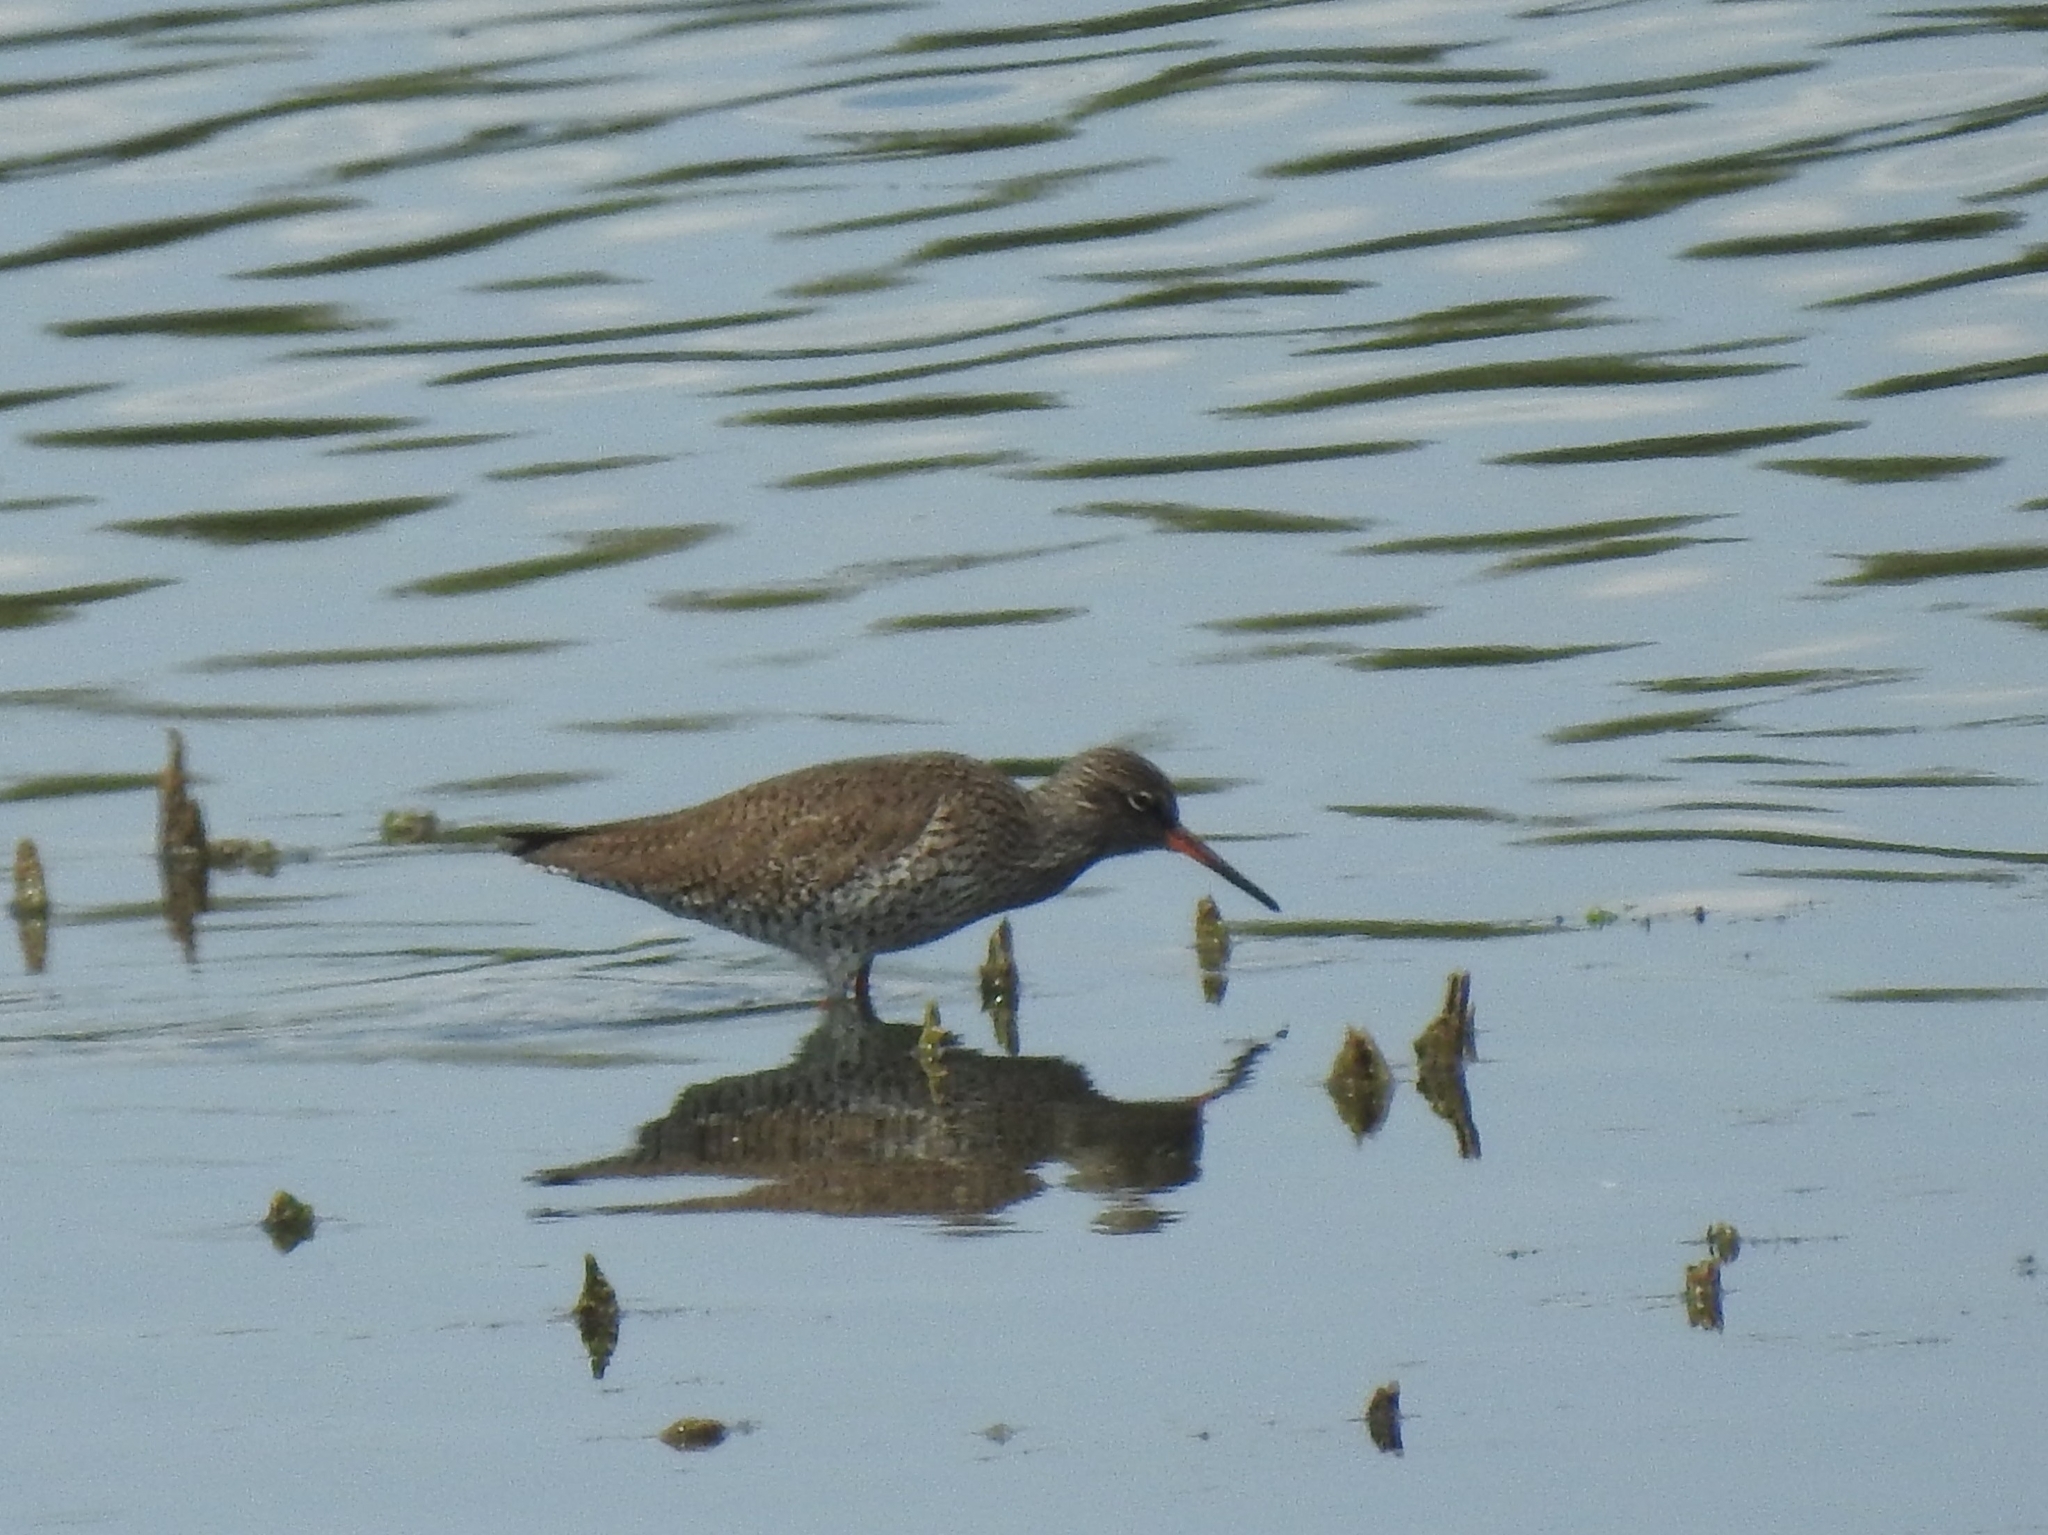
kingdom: Animalia
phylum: Chordata
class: Aves
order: Charadriiformes
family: Scolopacidae
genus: Tringa
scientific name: Tringa totanus
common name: Common redshank
